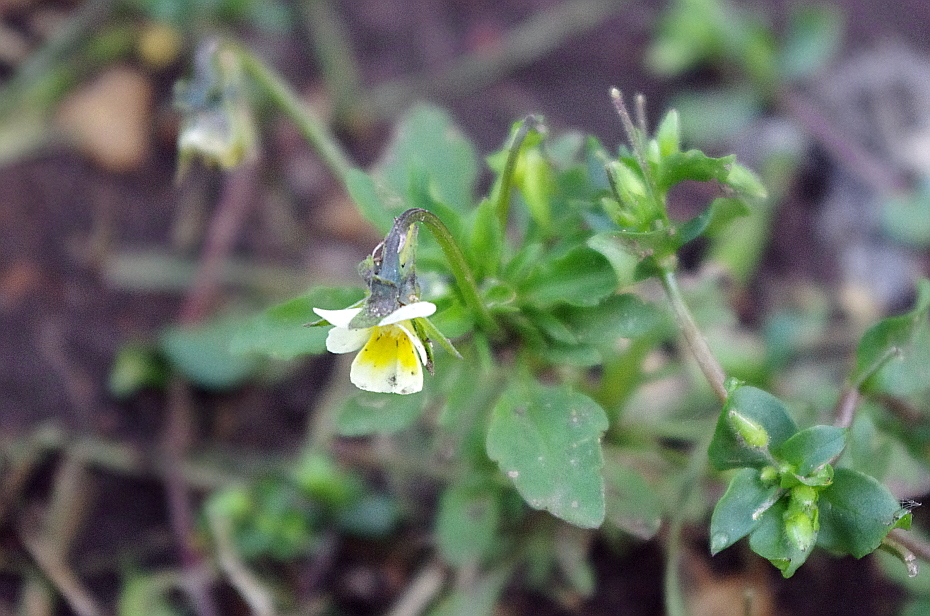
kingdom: Plantae
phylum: Tracheophyta
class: Magnoliopsida
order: Malpighiales
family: Violaceae
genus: Viola
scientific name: Viola arvensis
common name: Field pansy
